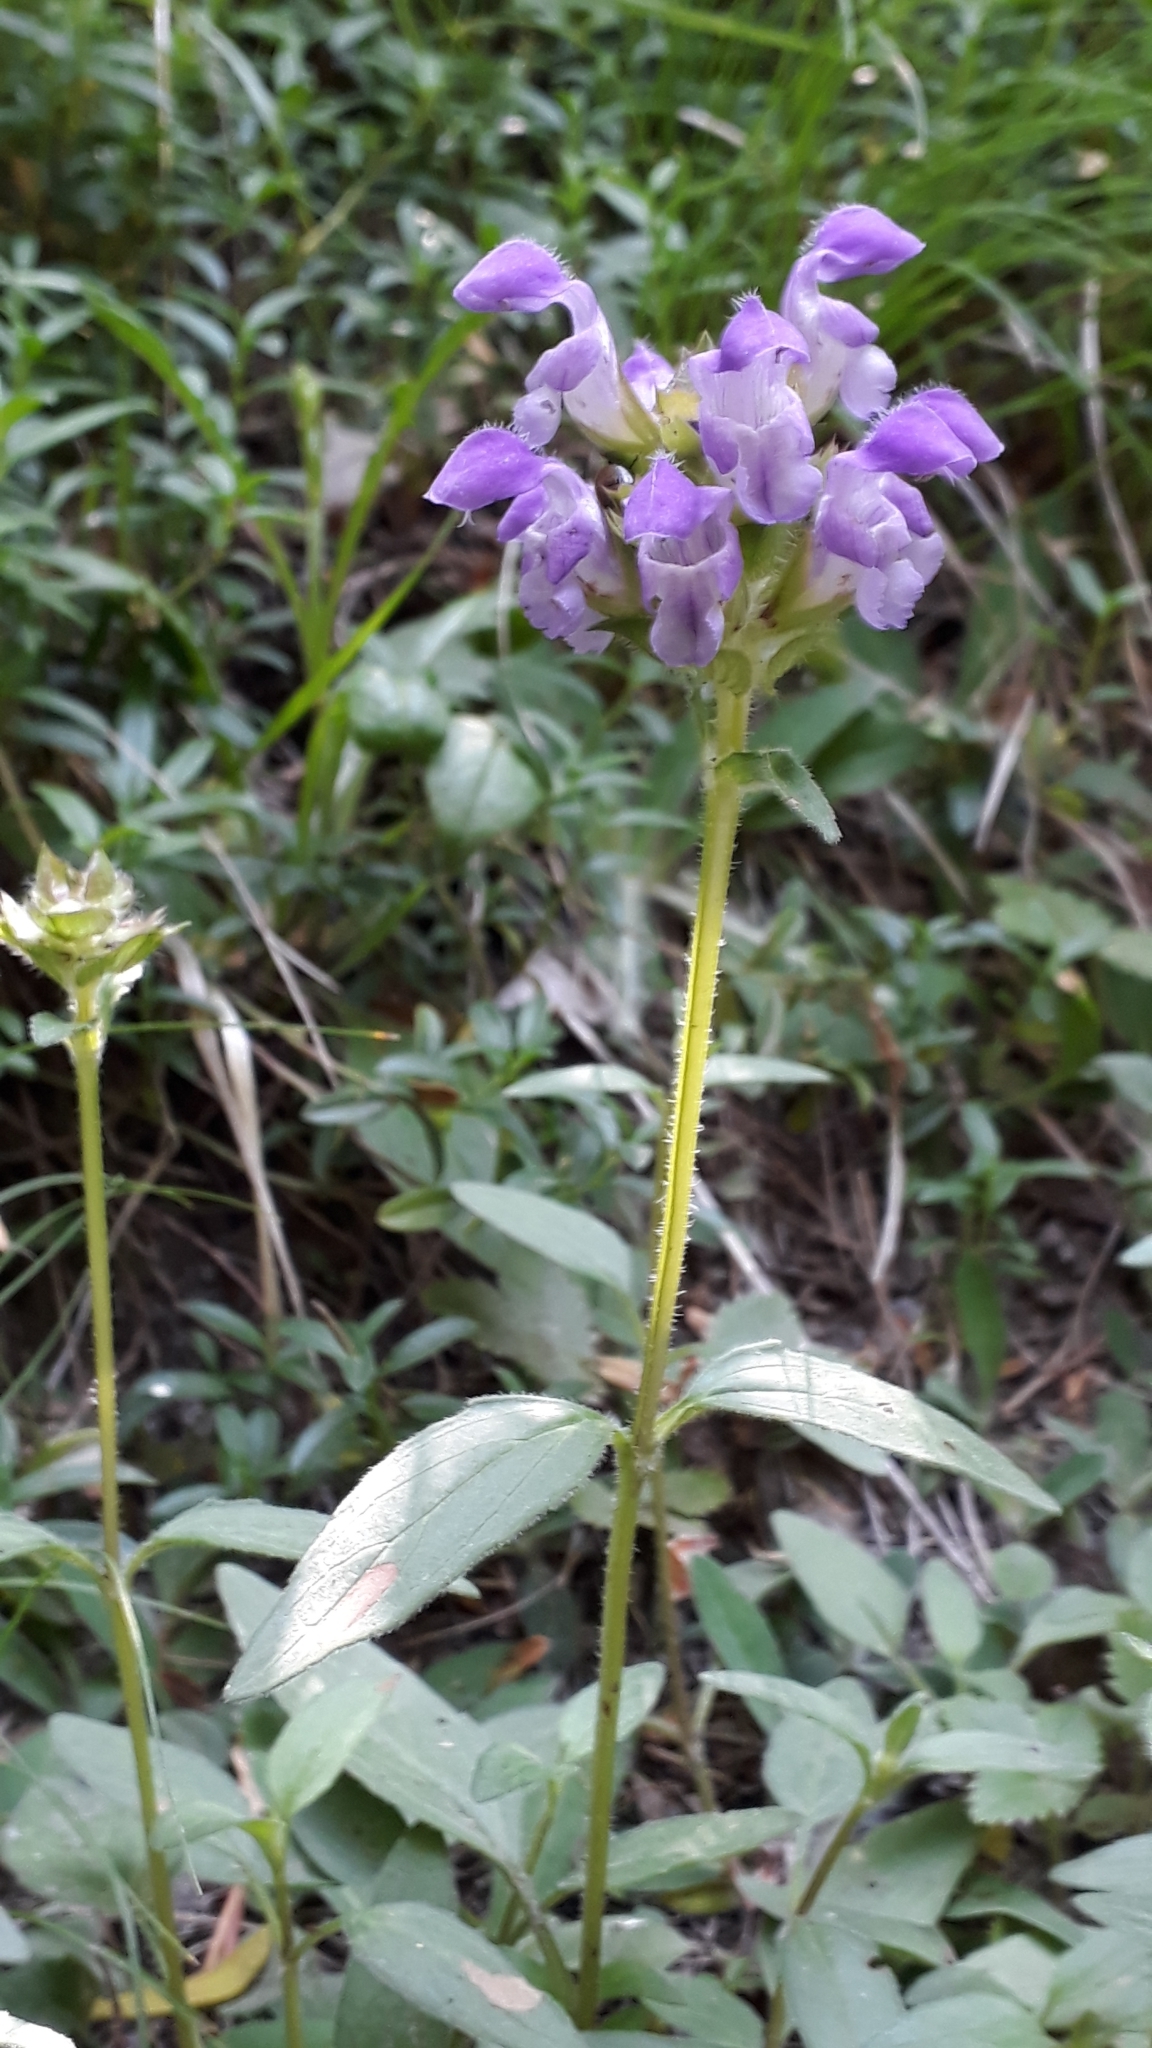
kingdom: Plantae
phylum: Tracheophyta
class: Magnoliopsida
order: Lamiales
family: Lamiaceae
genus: Prunella
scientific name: Prunella grandiflora
